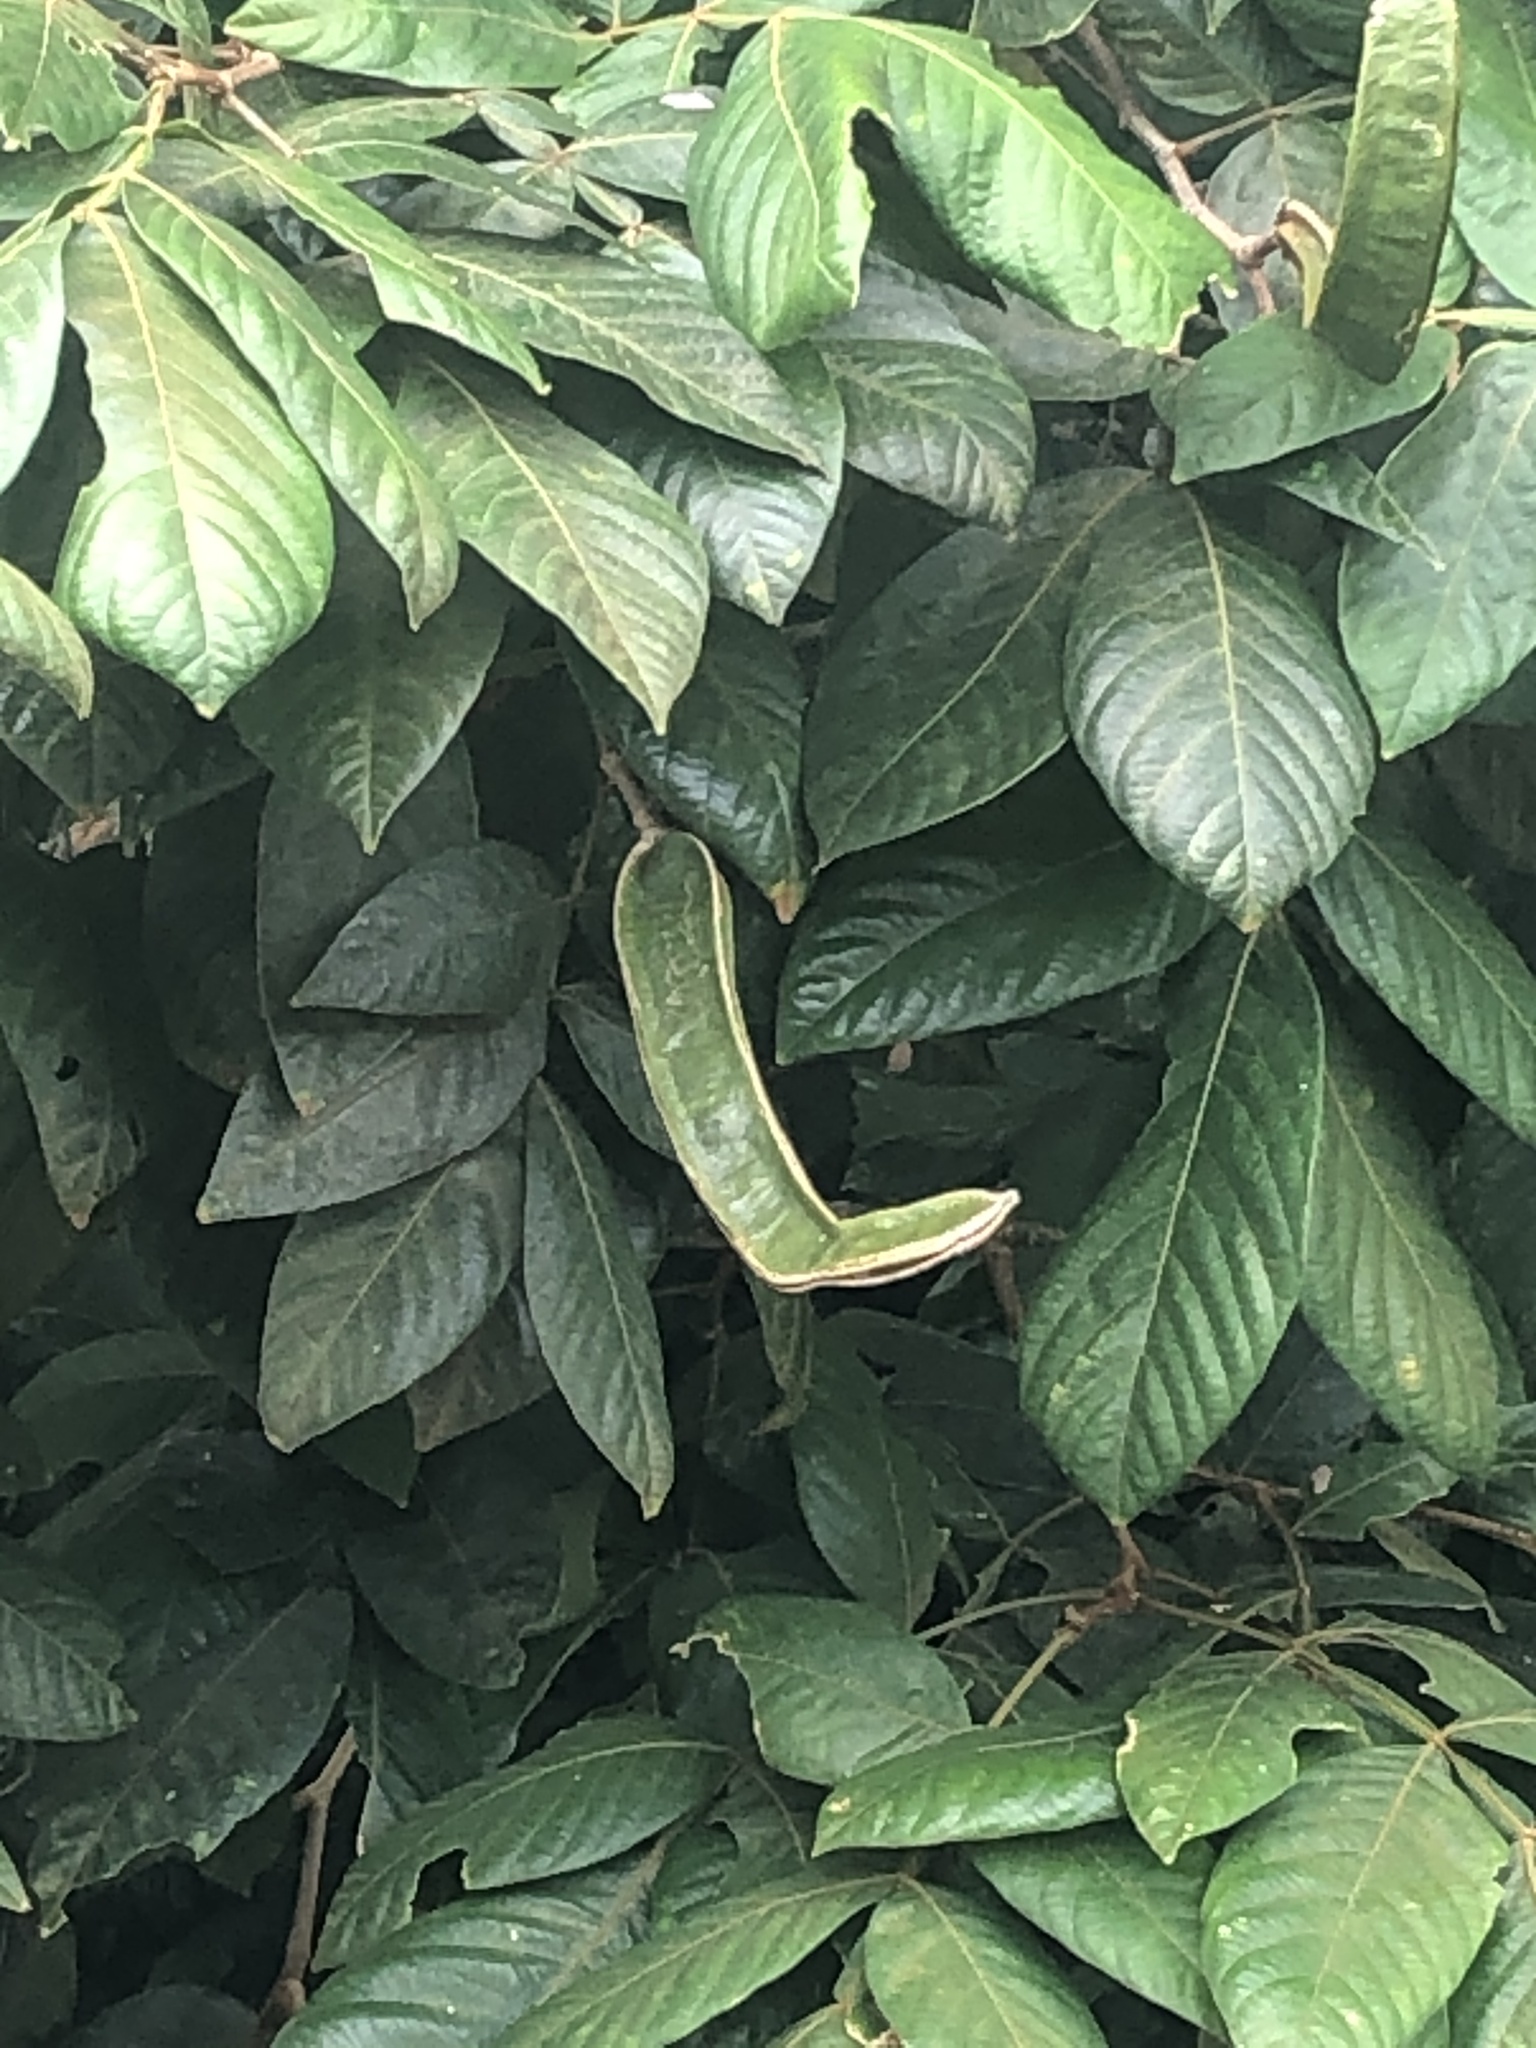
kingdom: Plantae
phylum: Tracheophyta
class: Magnoliopsida
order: Fabales
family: Fabaceae
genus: Inga
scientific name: Inga sapindoides
